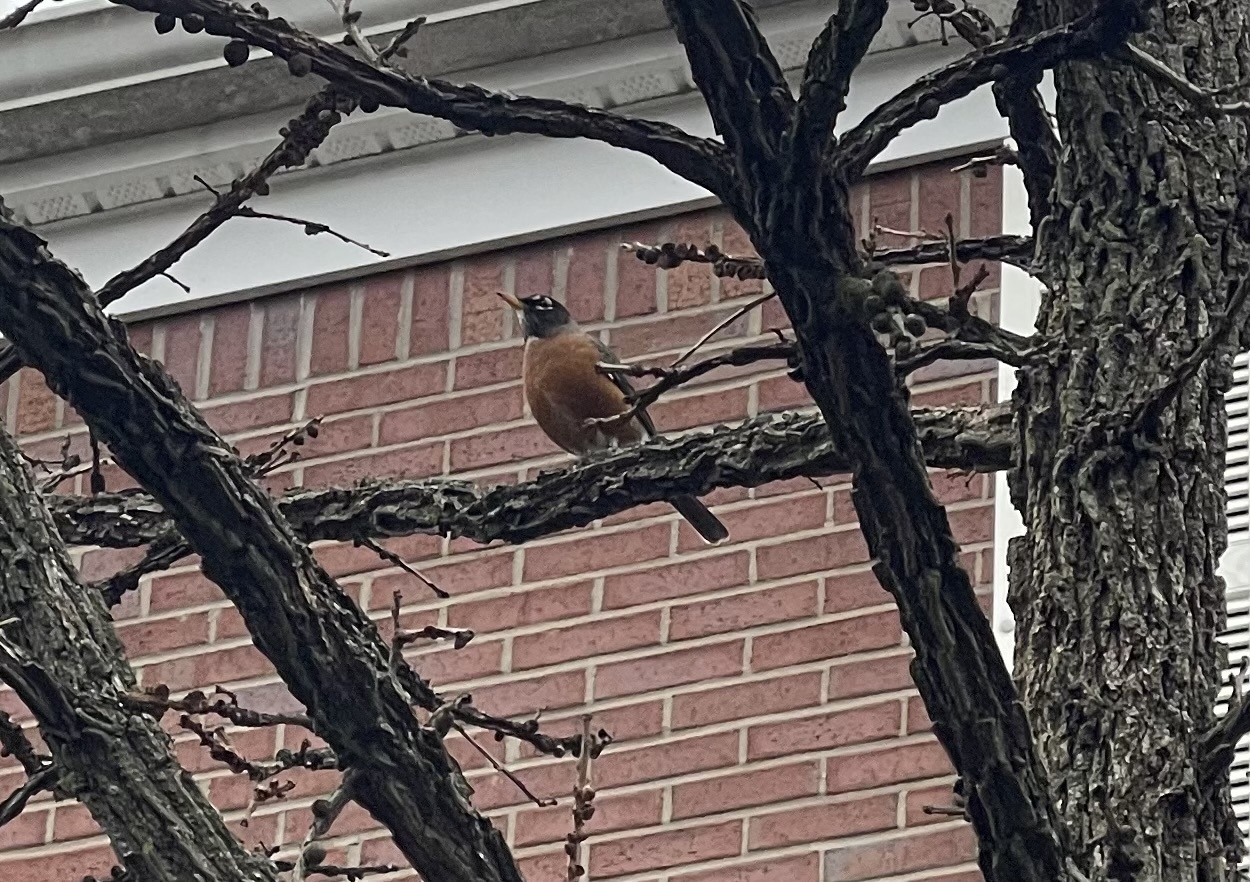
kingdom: Animalia
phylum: Chordata
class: Aves
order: Passeriformes
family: Turdidae
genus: Turdus
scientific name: Turdus migratorius
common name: American robin
